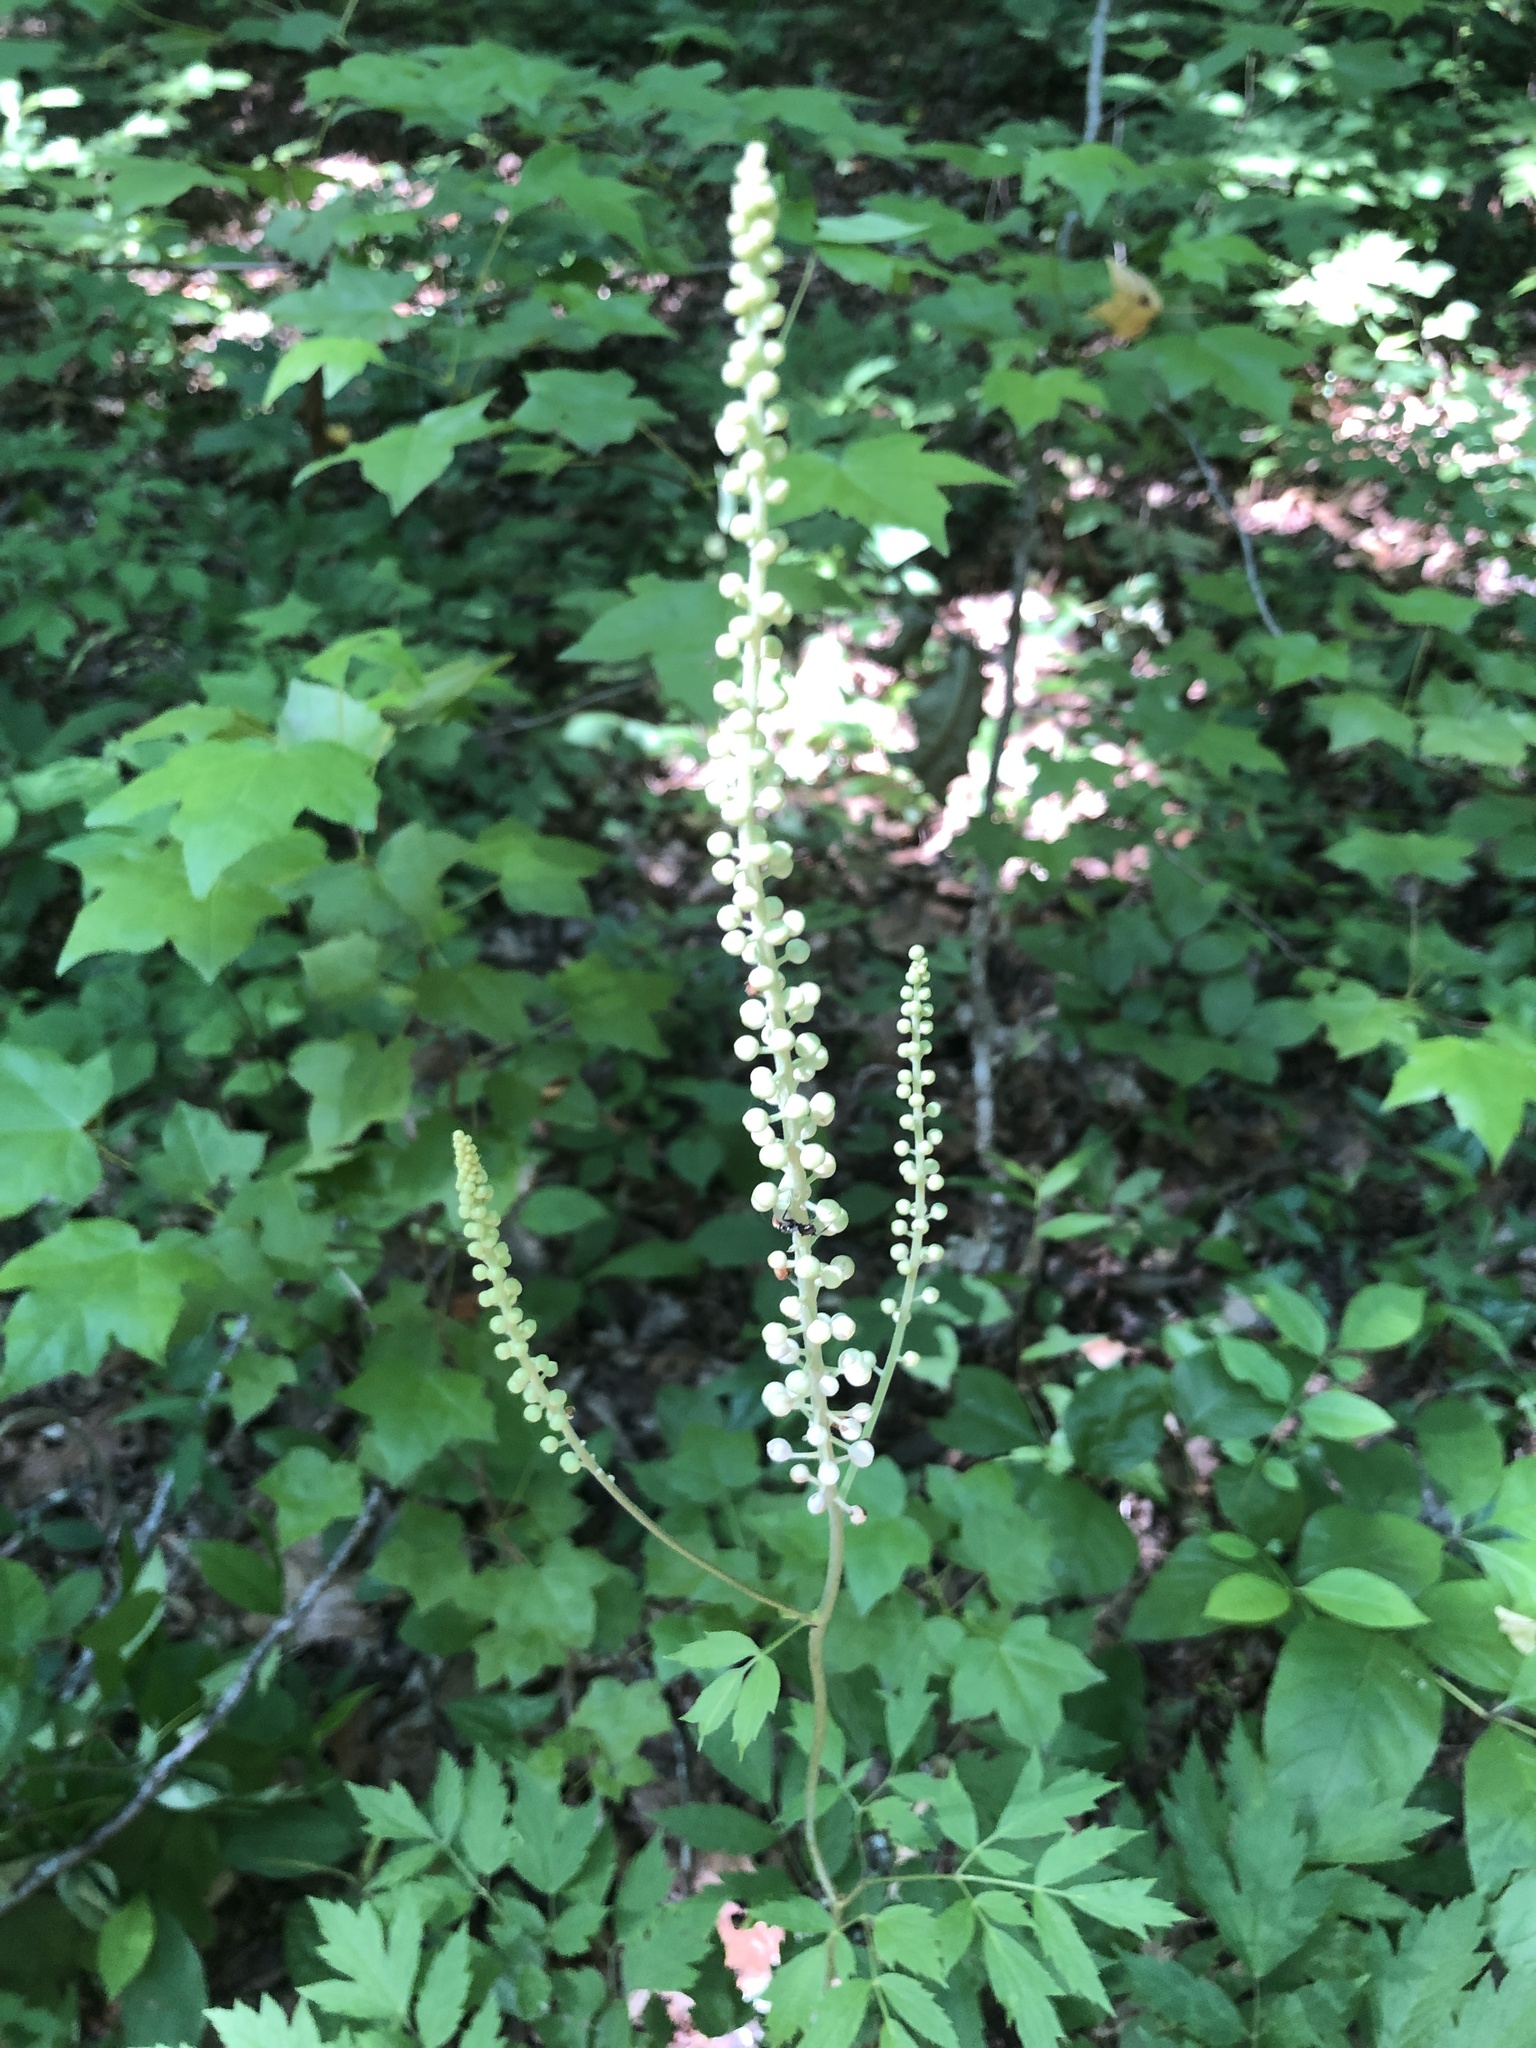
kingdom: Plantae
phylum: Tracheophyta
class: Magnoliopsida
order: Ranunculales
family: Ranunculaceae
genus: Actaea
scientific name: Actaea racemosa
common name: Black cohosh
